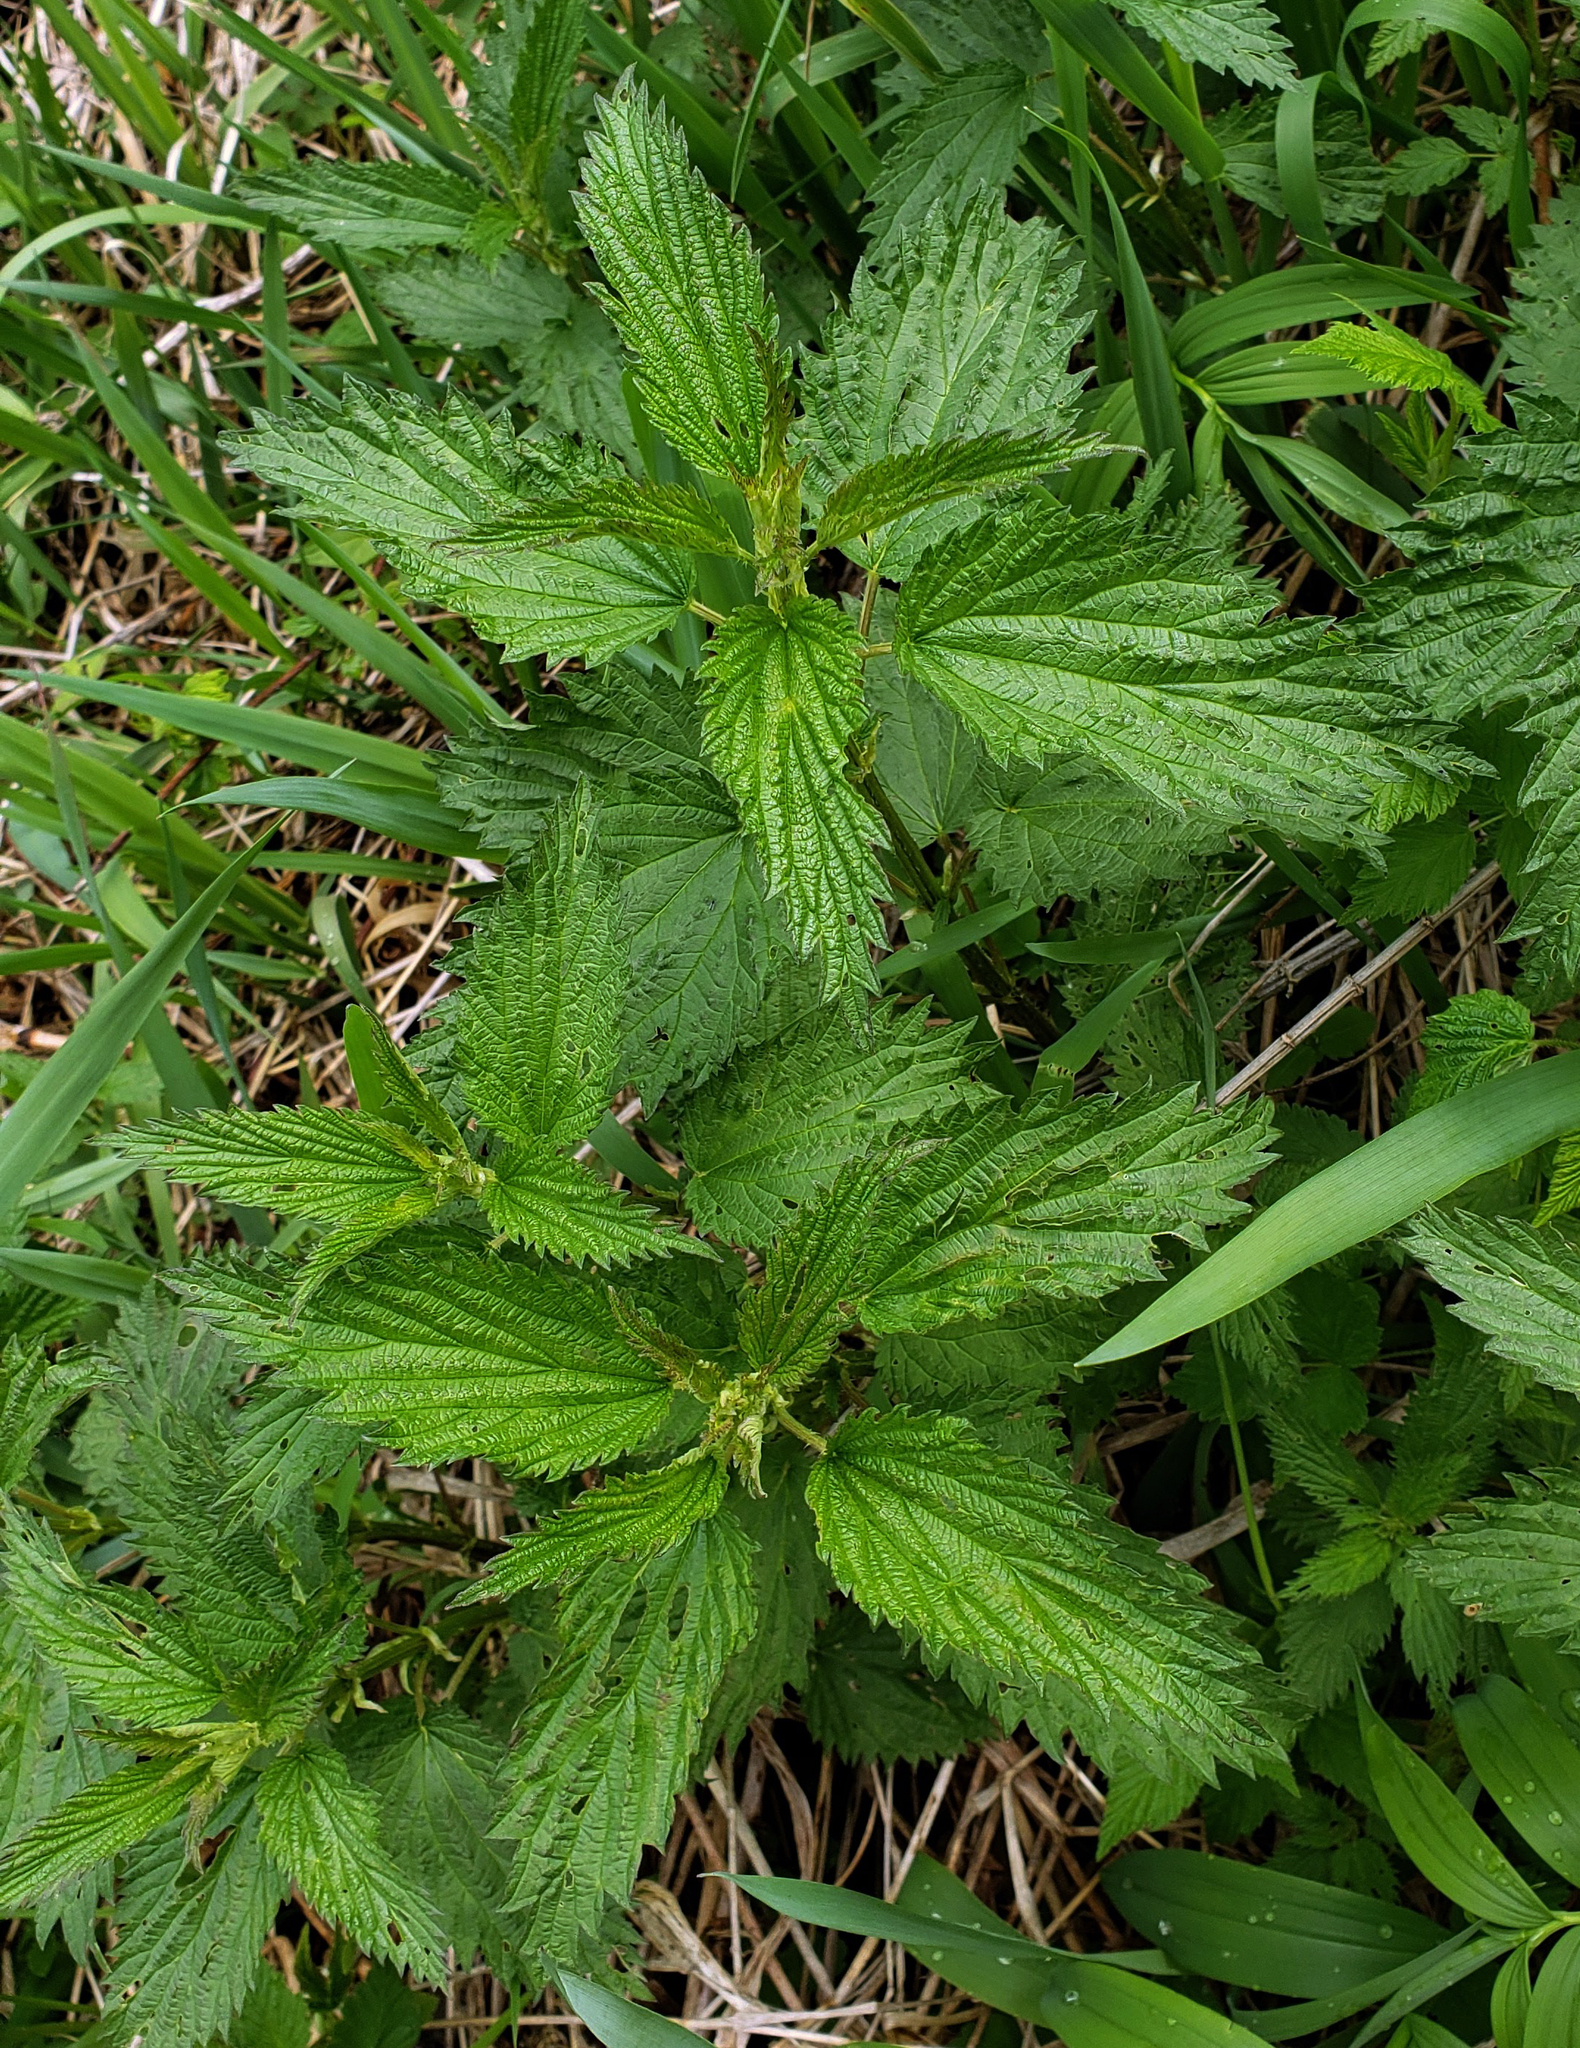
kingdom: Plantae
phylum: Tracheophyta
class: Magnoliopsida
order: Rosales
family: Urticaceae
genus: Urtica
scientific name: Urtica dioica
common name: Common nettle
